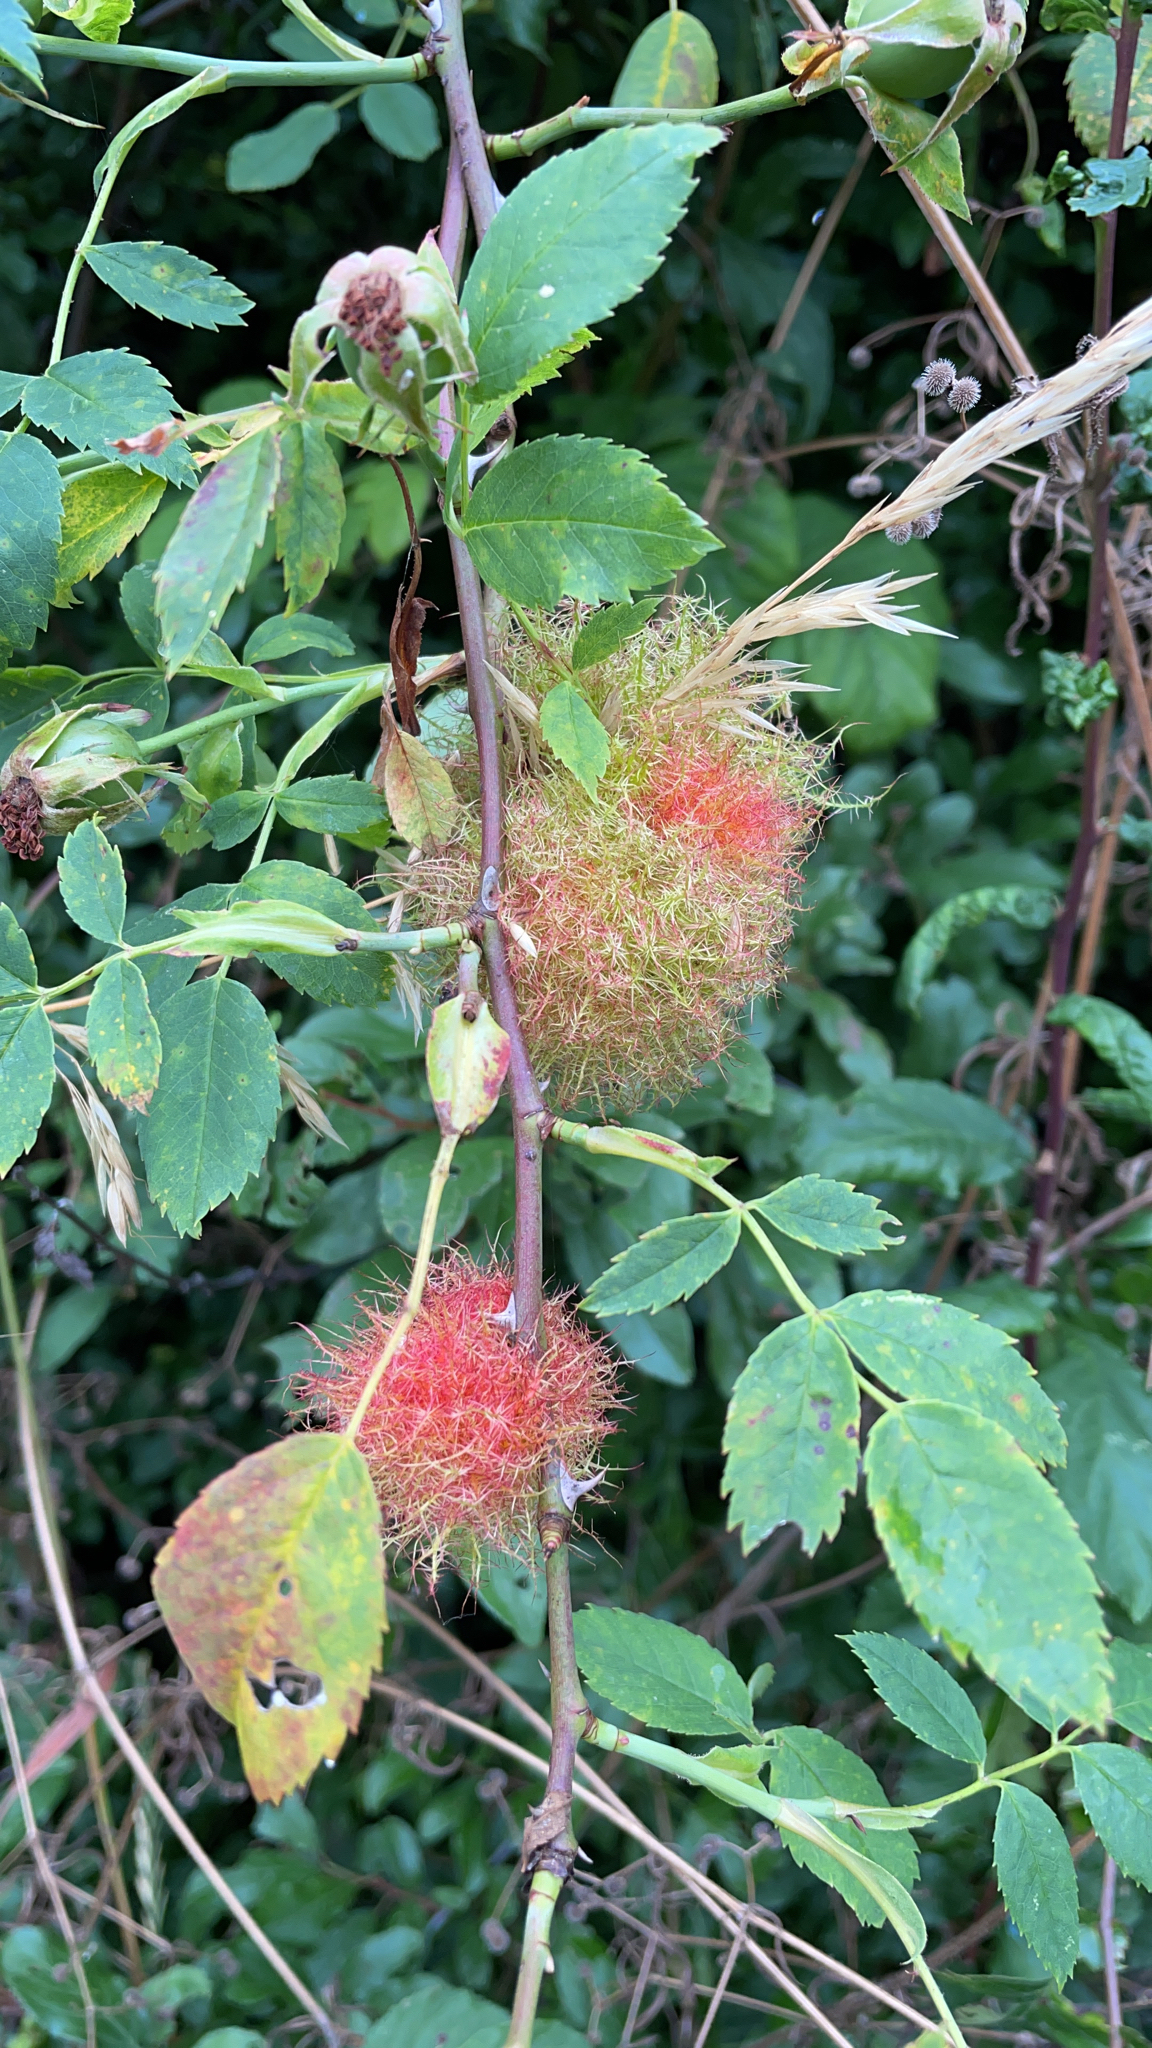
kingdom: Animalia
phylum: Arthropoda
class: Insecta
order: Hymenoptera
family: Cynipidae
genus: Diplolepis
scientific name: Diplolepis rosae
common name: Bedeguar gall
